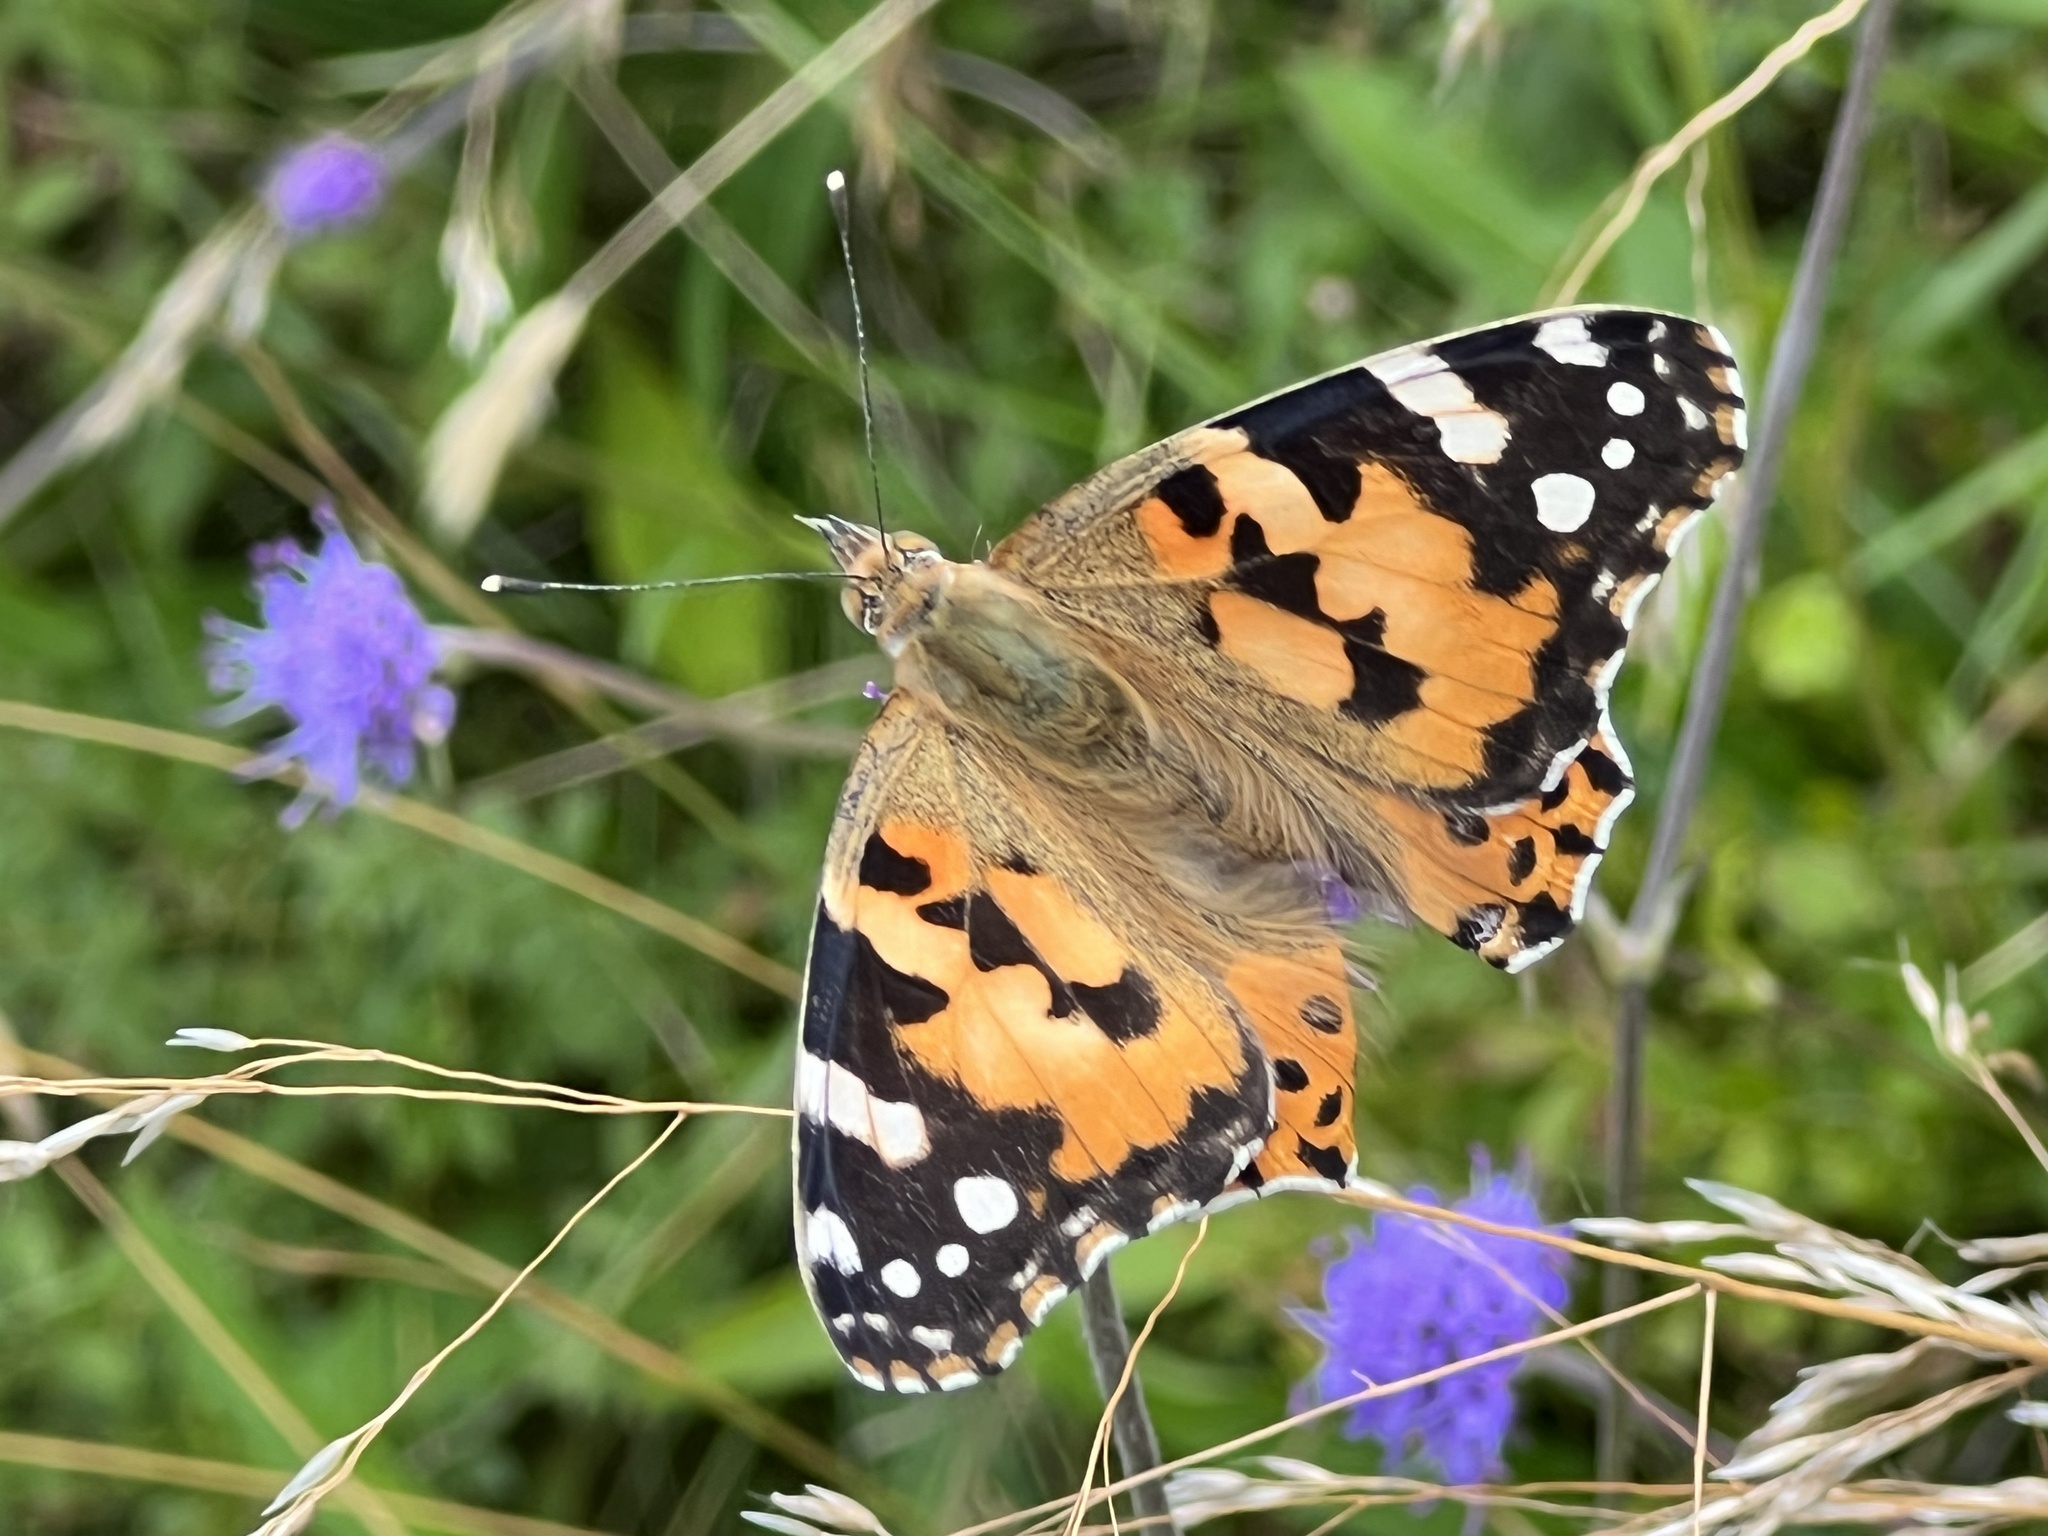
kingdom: Animalia
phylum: Arthropoda
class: Insecta
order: Lepidoptera
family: Nymphalidae
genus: Vanessa
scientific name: Vanessa cardui
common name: Painted lady
